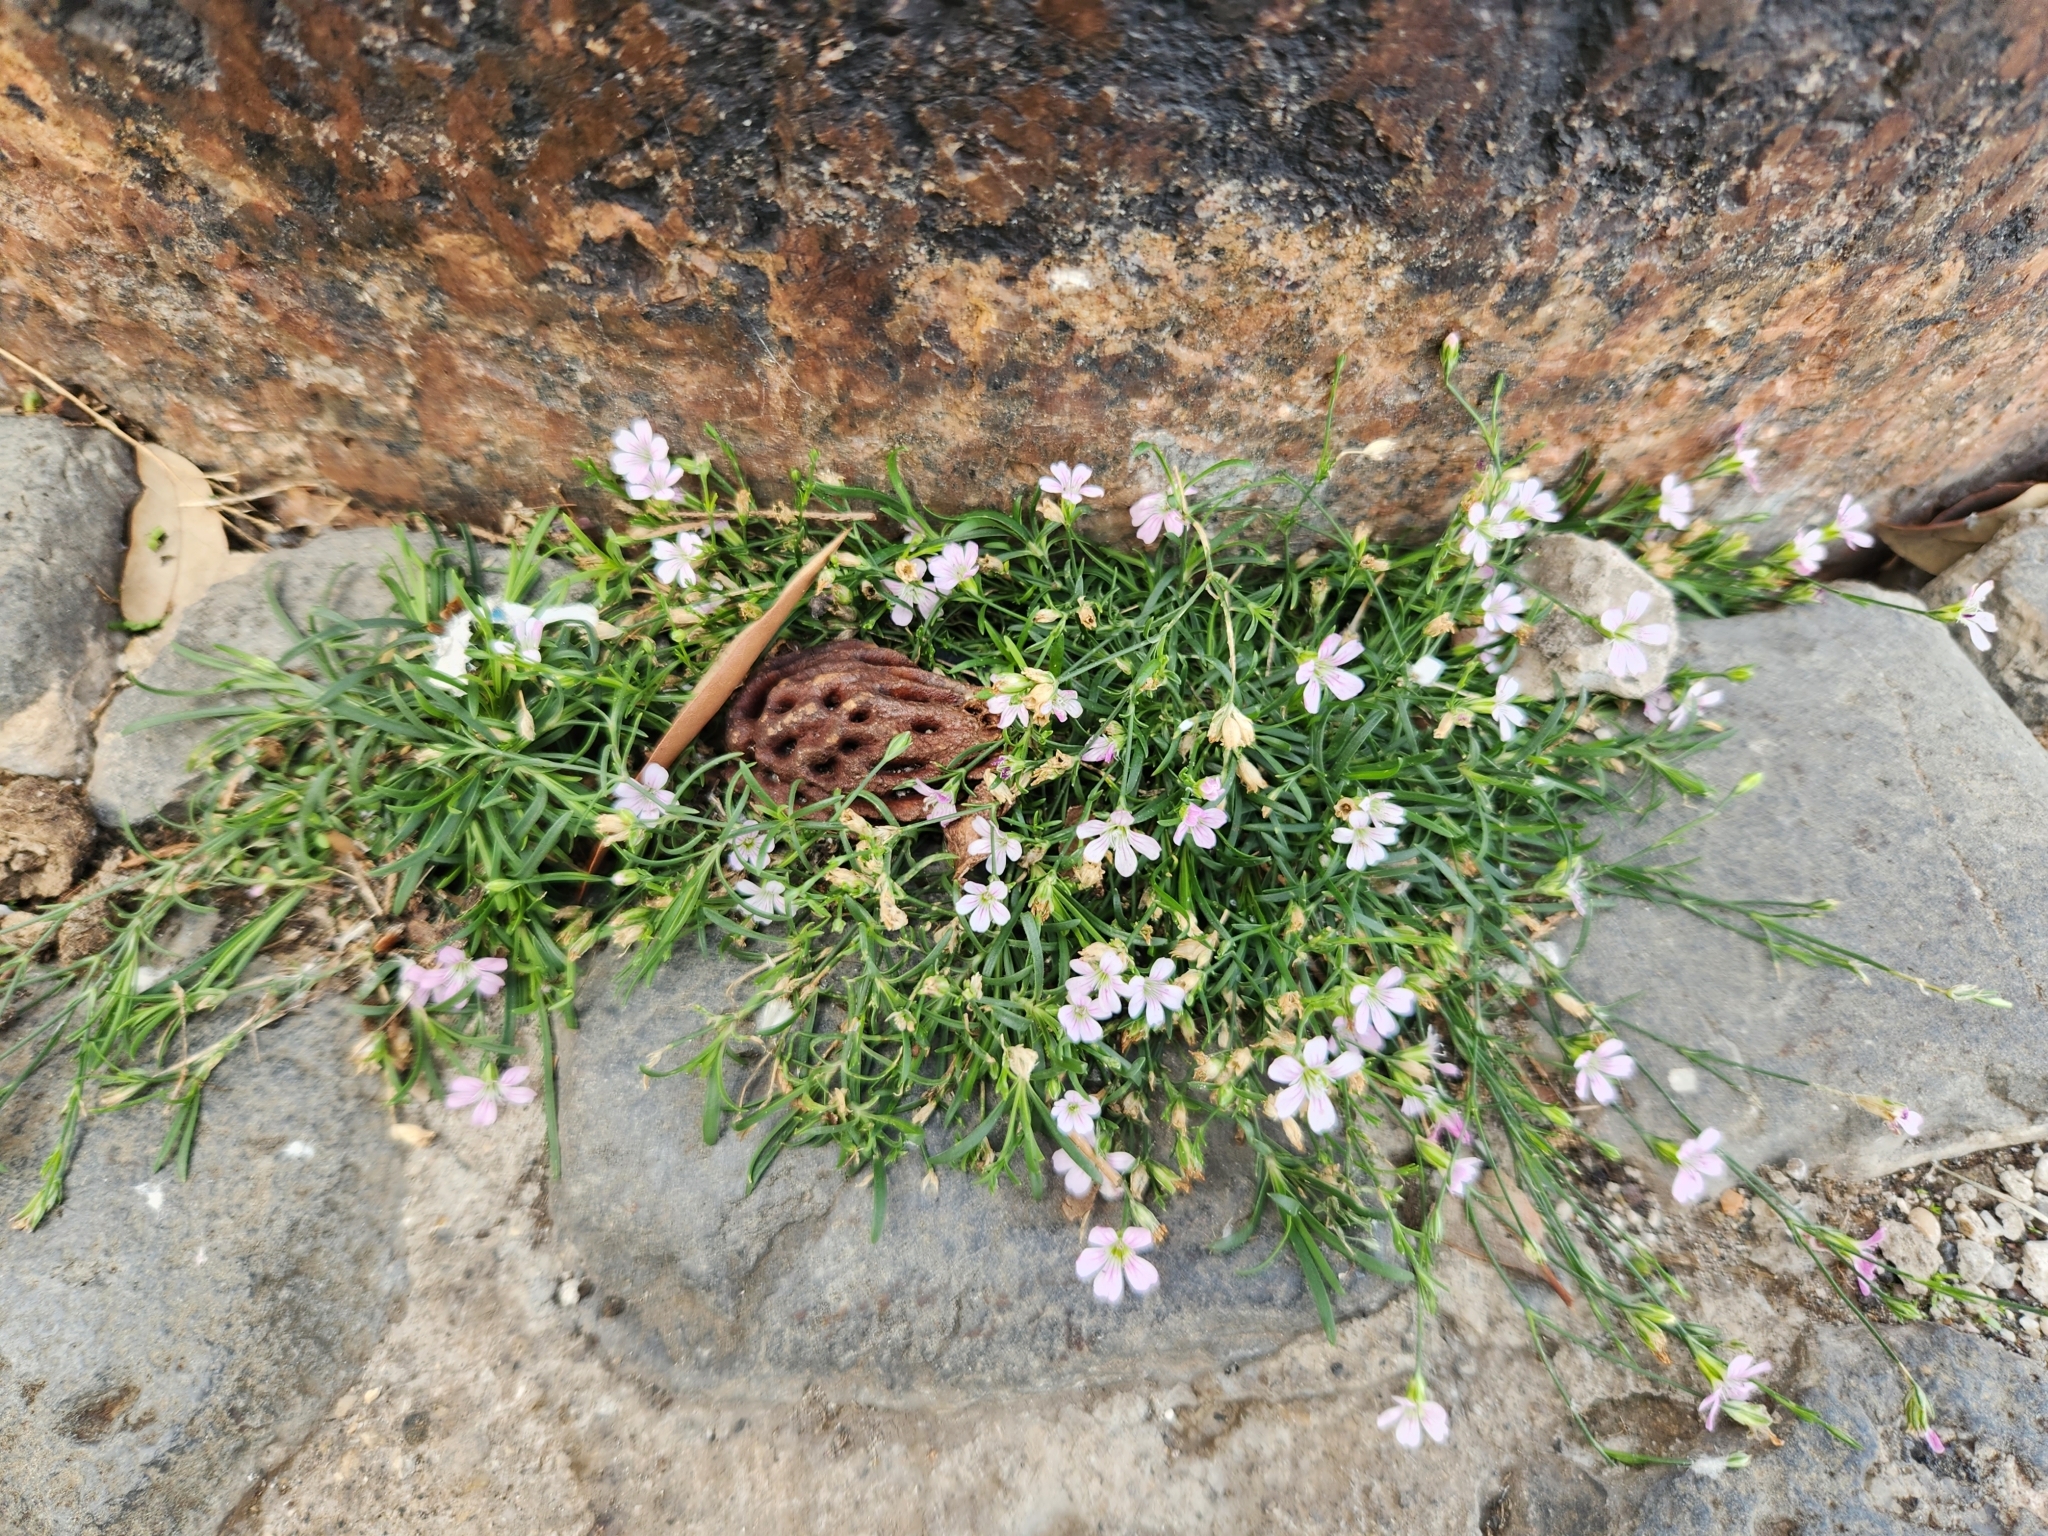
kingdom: Plantae
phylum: Tracheophyta
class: Magnoliopsida
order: Caryophyllales
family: Caryophyllaceae
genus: Petrorhagia
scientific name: Petrorhagia saxifraga
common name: Tunicflower
